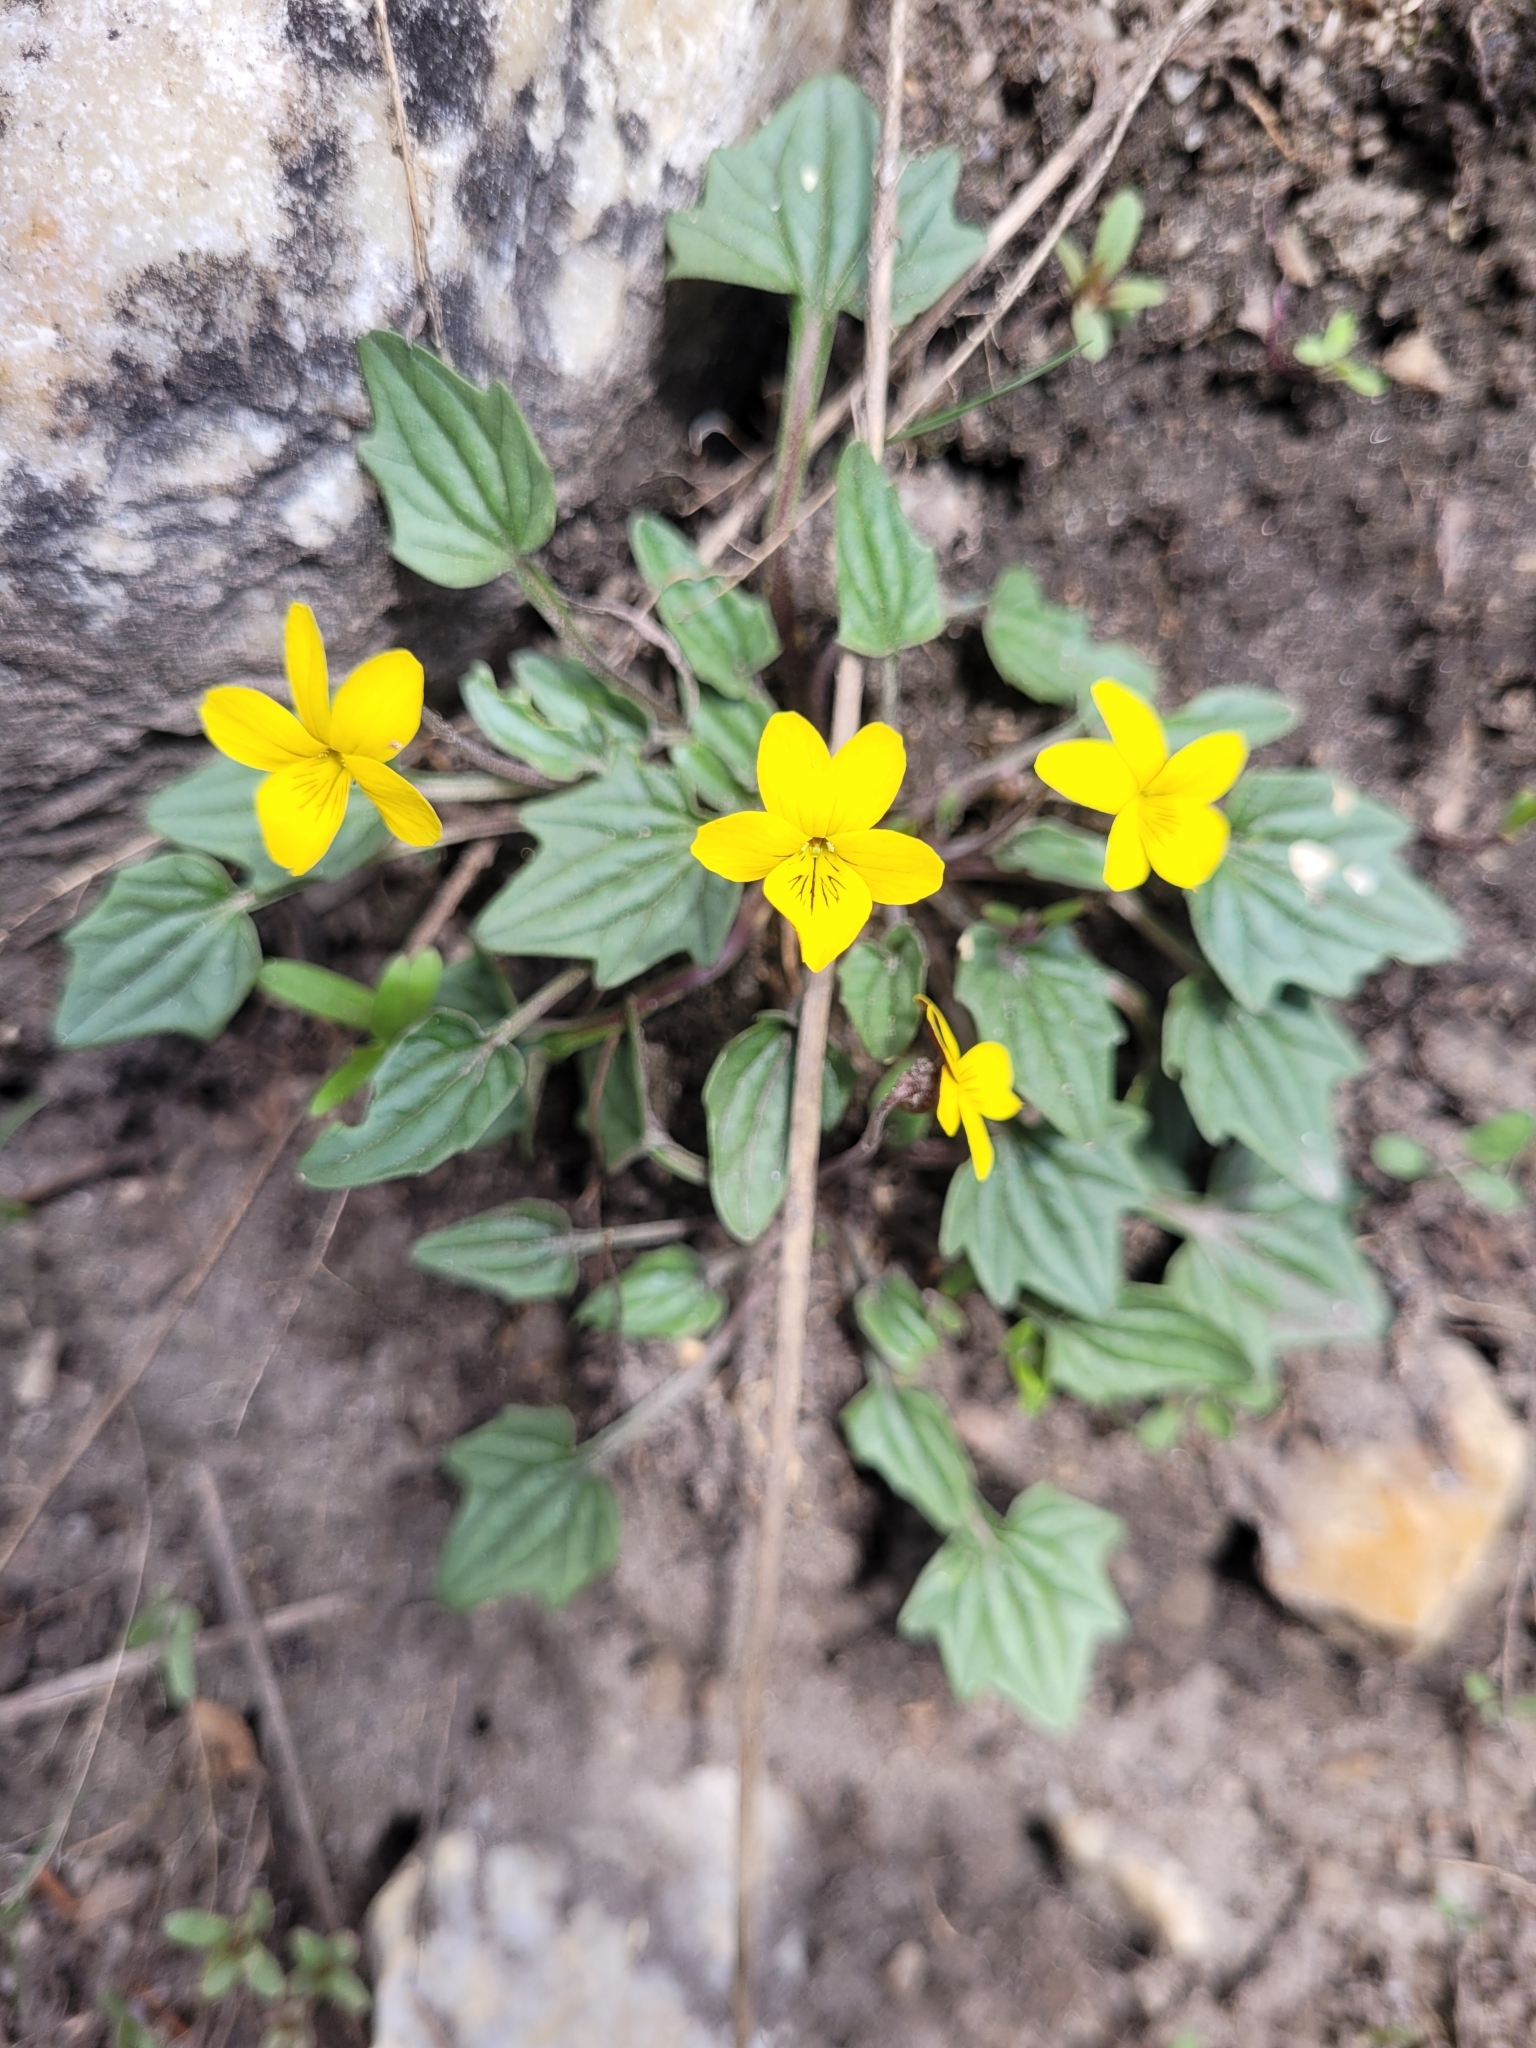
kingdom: Plantae
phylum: Tracheophyta
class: Magnoliopsida
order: Malpighiales
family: Violaceae
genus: Viola
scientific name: Viola purpurea
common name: Pine violet
